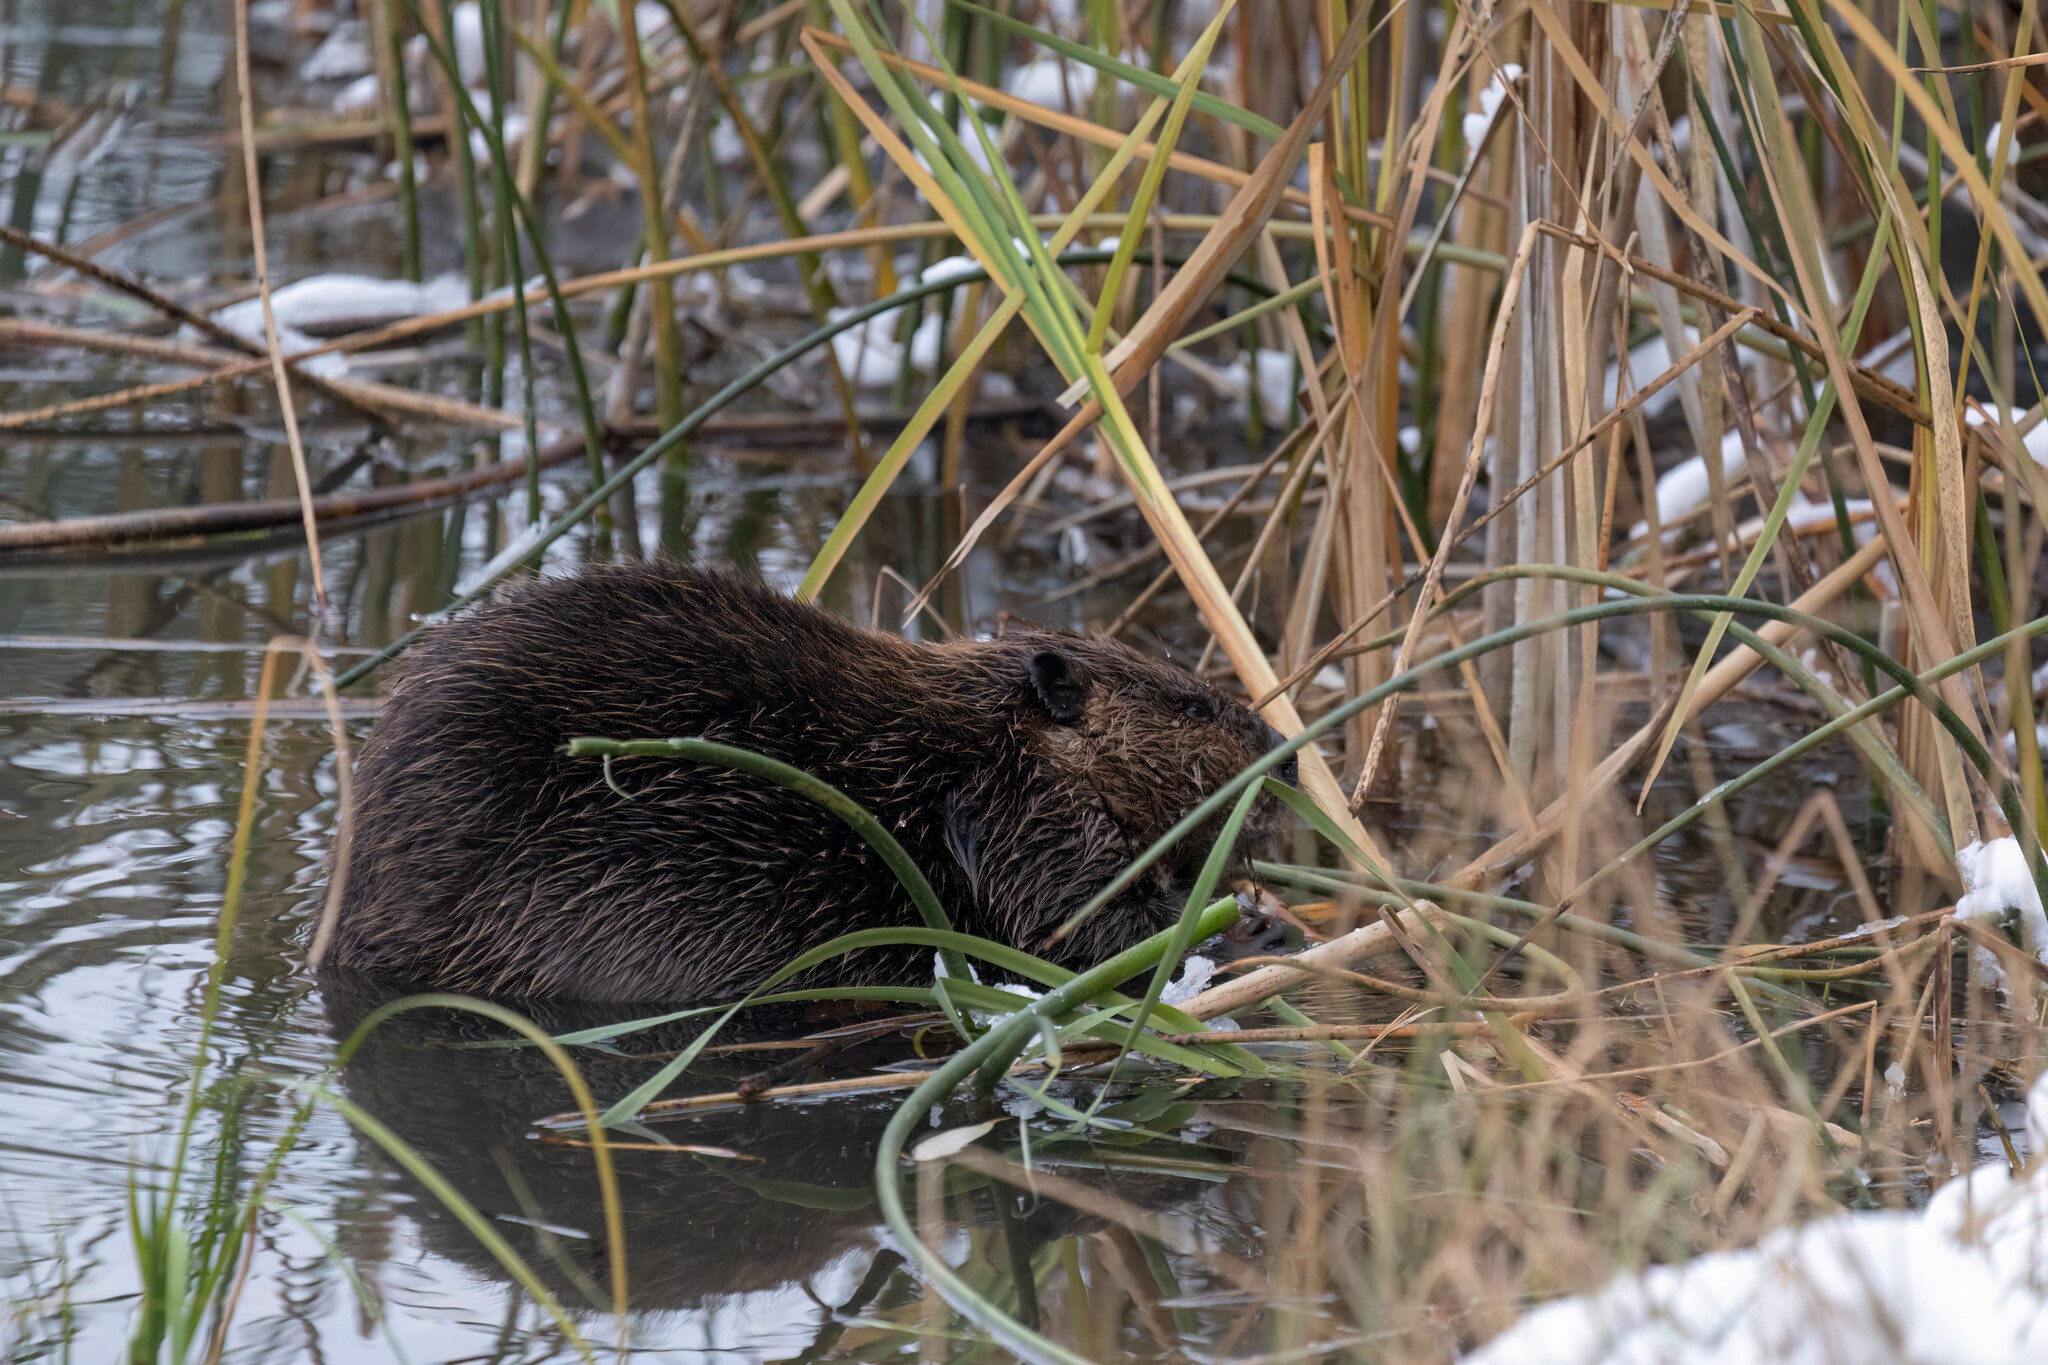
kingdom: Animalia
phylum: Chordata
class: Mammalia
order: Rodentia
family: Castoridae
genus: Castor
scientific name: Castor canadensis
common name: American beaver
